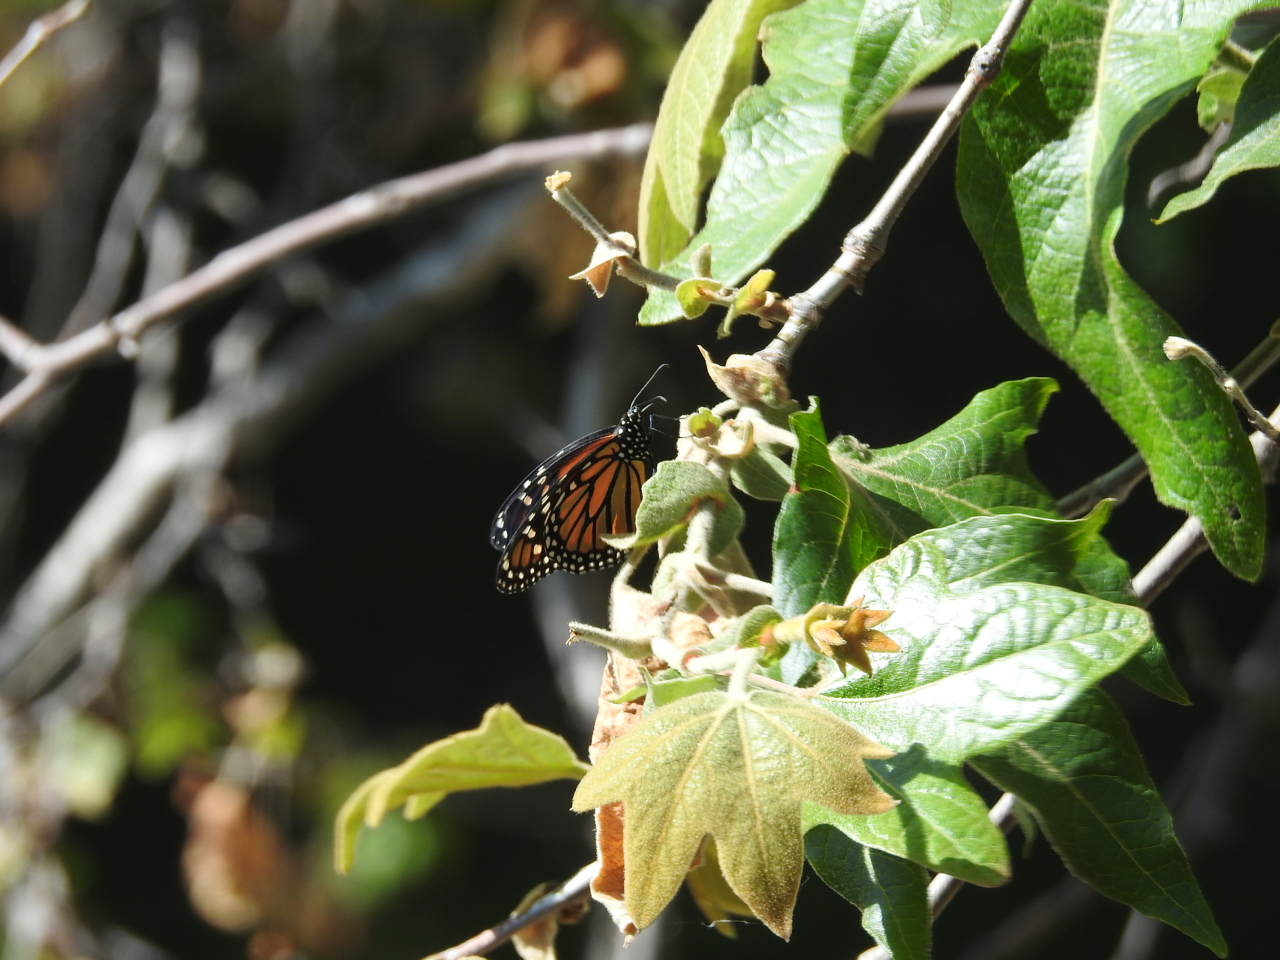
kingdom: Animalia
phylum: Arthropoda
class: Insecta
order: Lepidoptera
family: Nymphalidae
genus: Danaus
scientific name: Danaus plexippus
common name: Monarch
